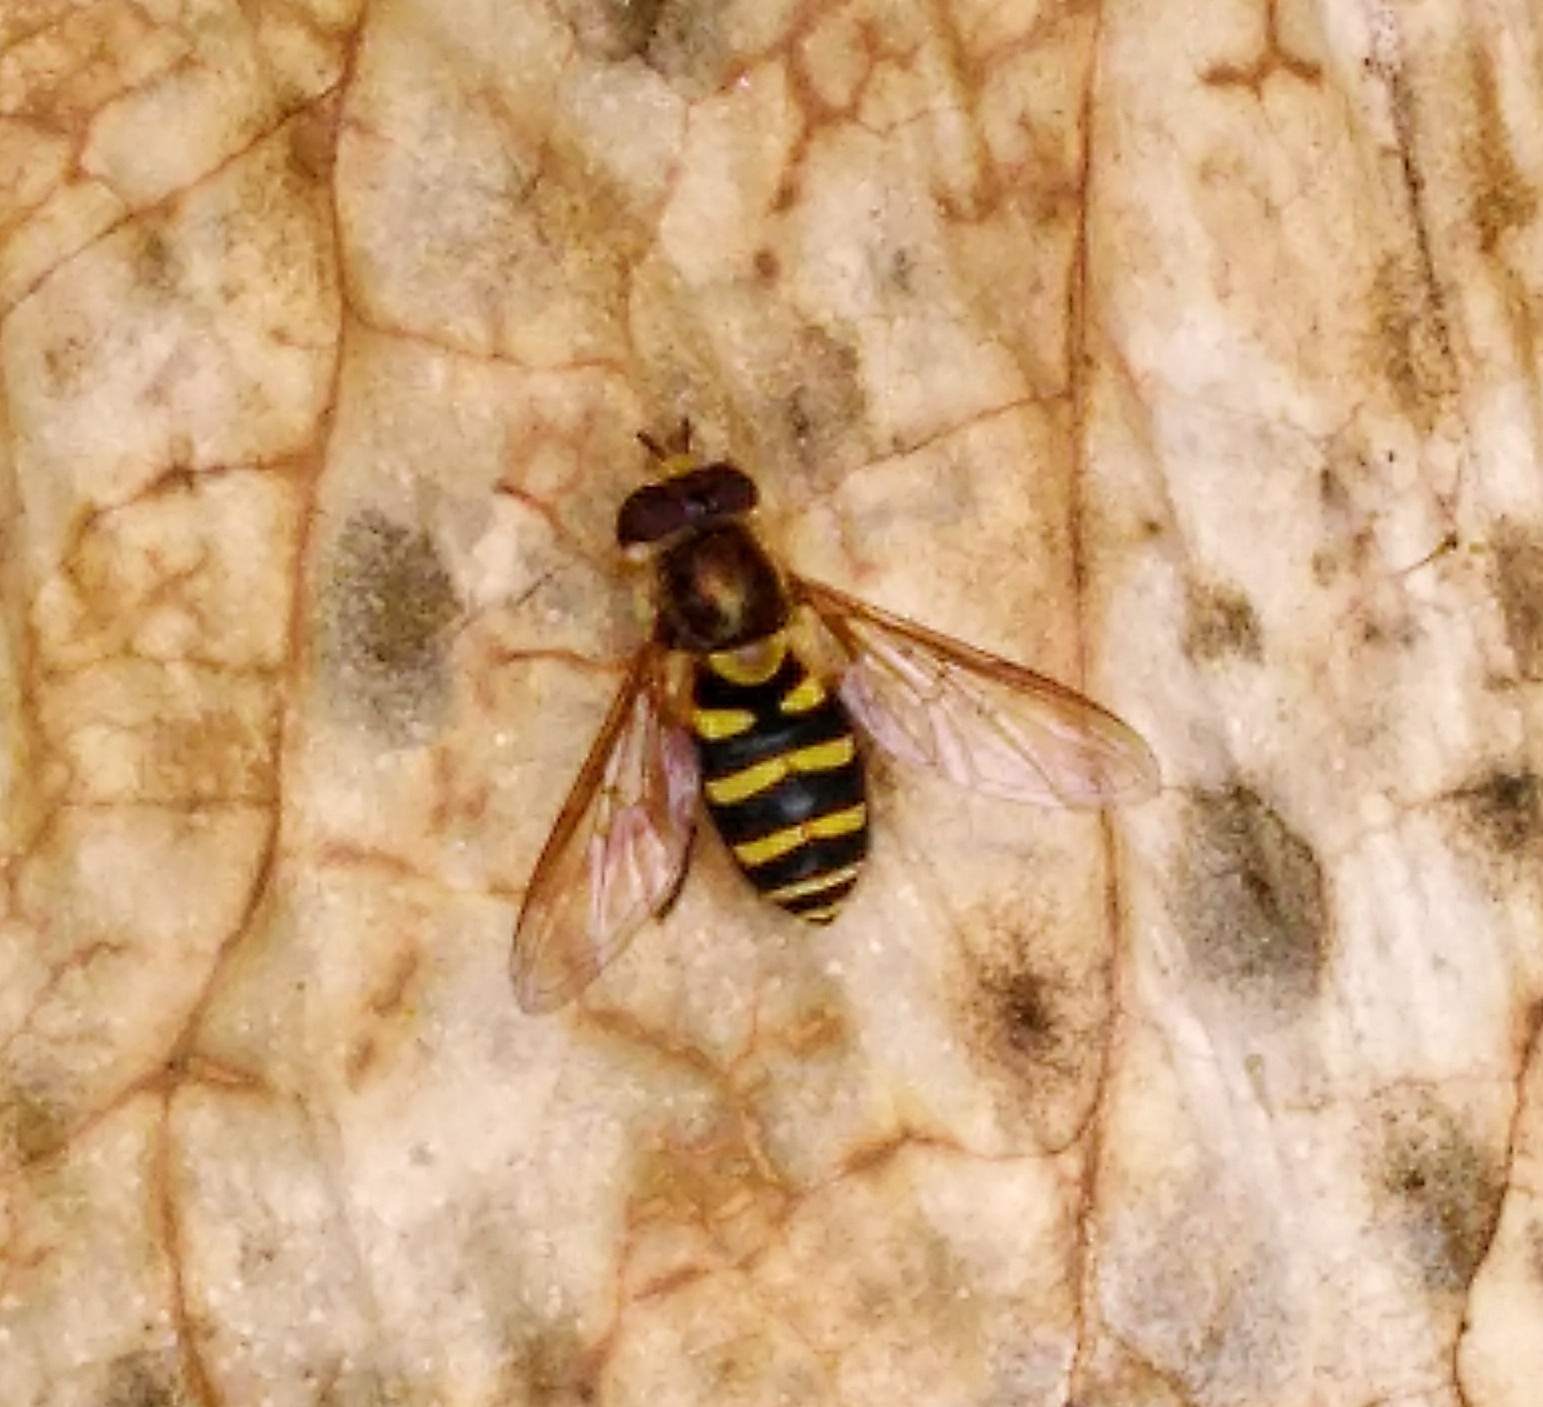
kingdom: Animalia
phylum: Arthropoda
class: Insecta
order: Diptera
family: Syrphidae
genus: Syrphus
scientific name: Syrphus opinator
